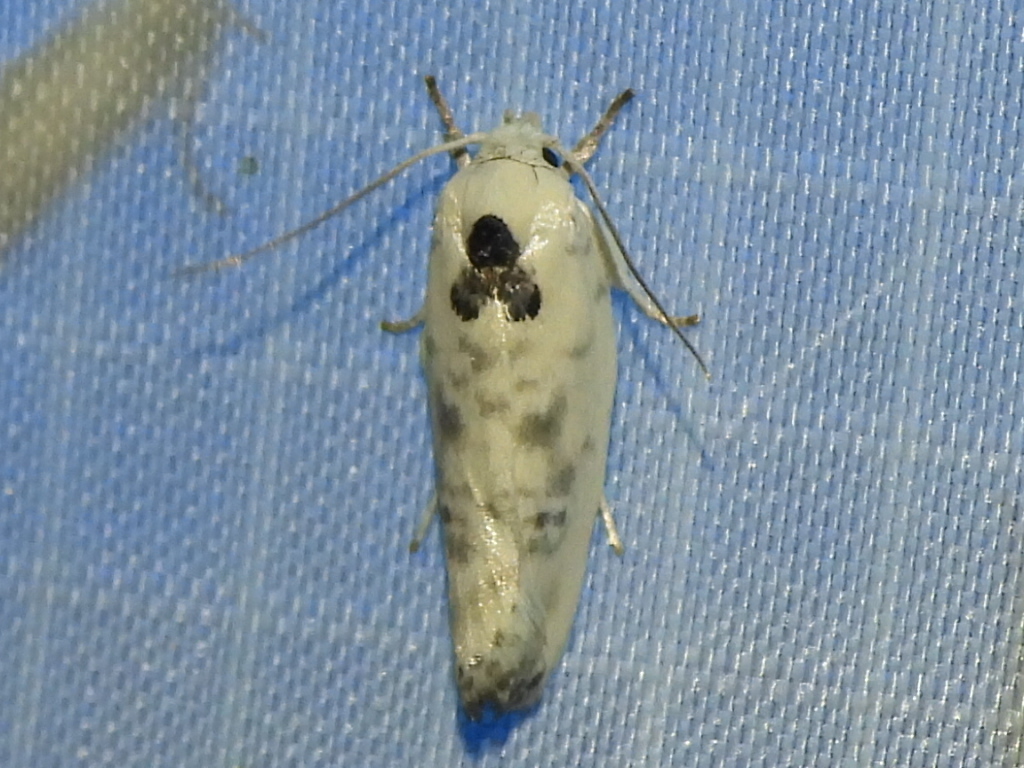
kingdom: Animalia
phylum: Arthropoda
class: Insecta
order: Lepidoptera
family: Depressariidae
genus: Antaeotricha
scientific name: Antaeotricha leucillana
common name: Pale gray bird-dropping moth
